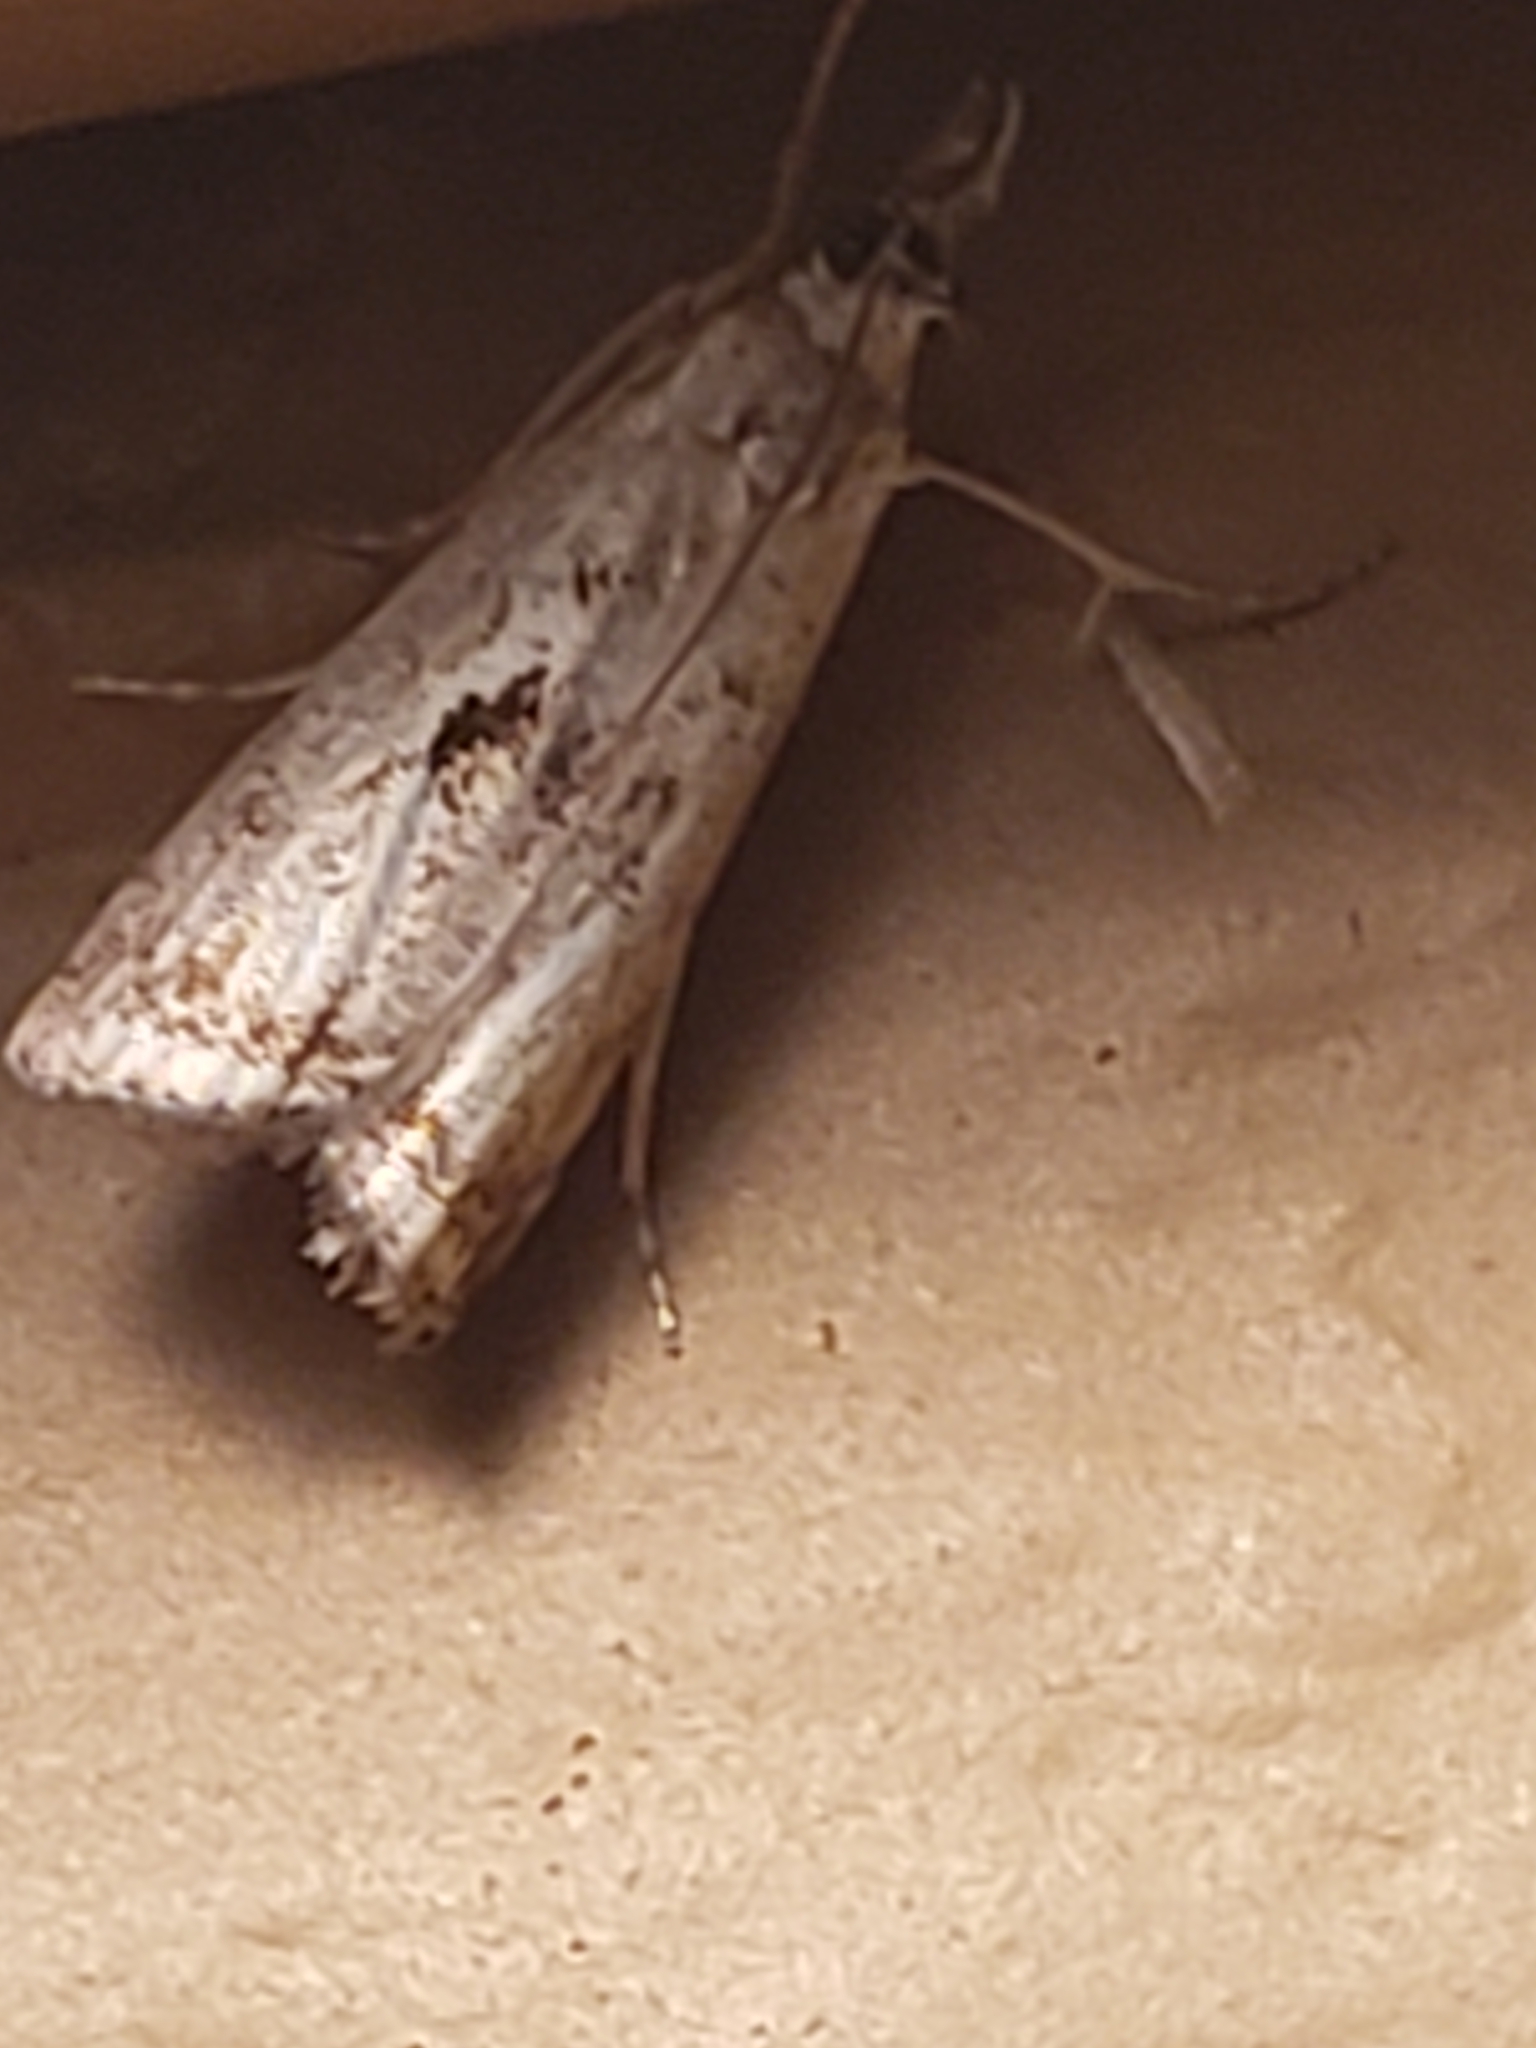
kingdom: Animalia
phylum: Arthropoda
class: Insecta
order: Lepidoptera
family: Crambidae
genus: Microcrambus
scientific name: Microcrambus elegans
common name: Elegant grass-veneer
